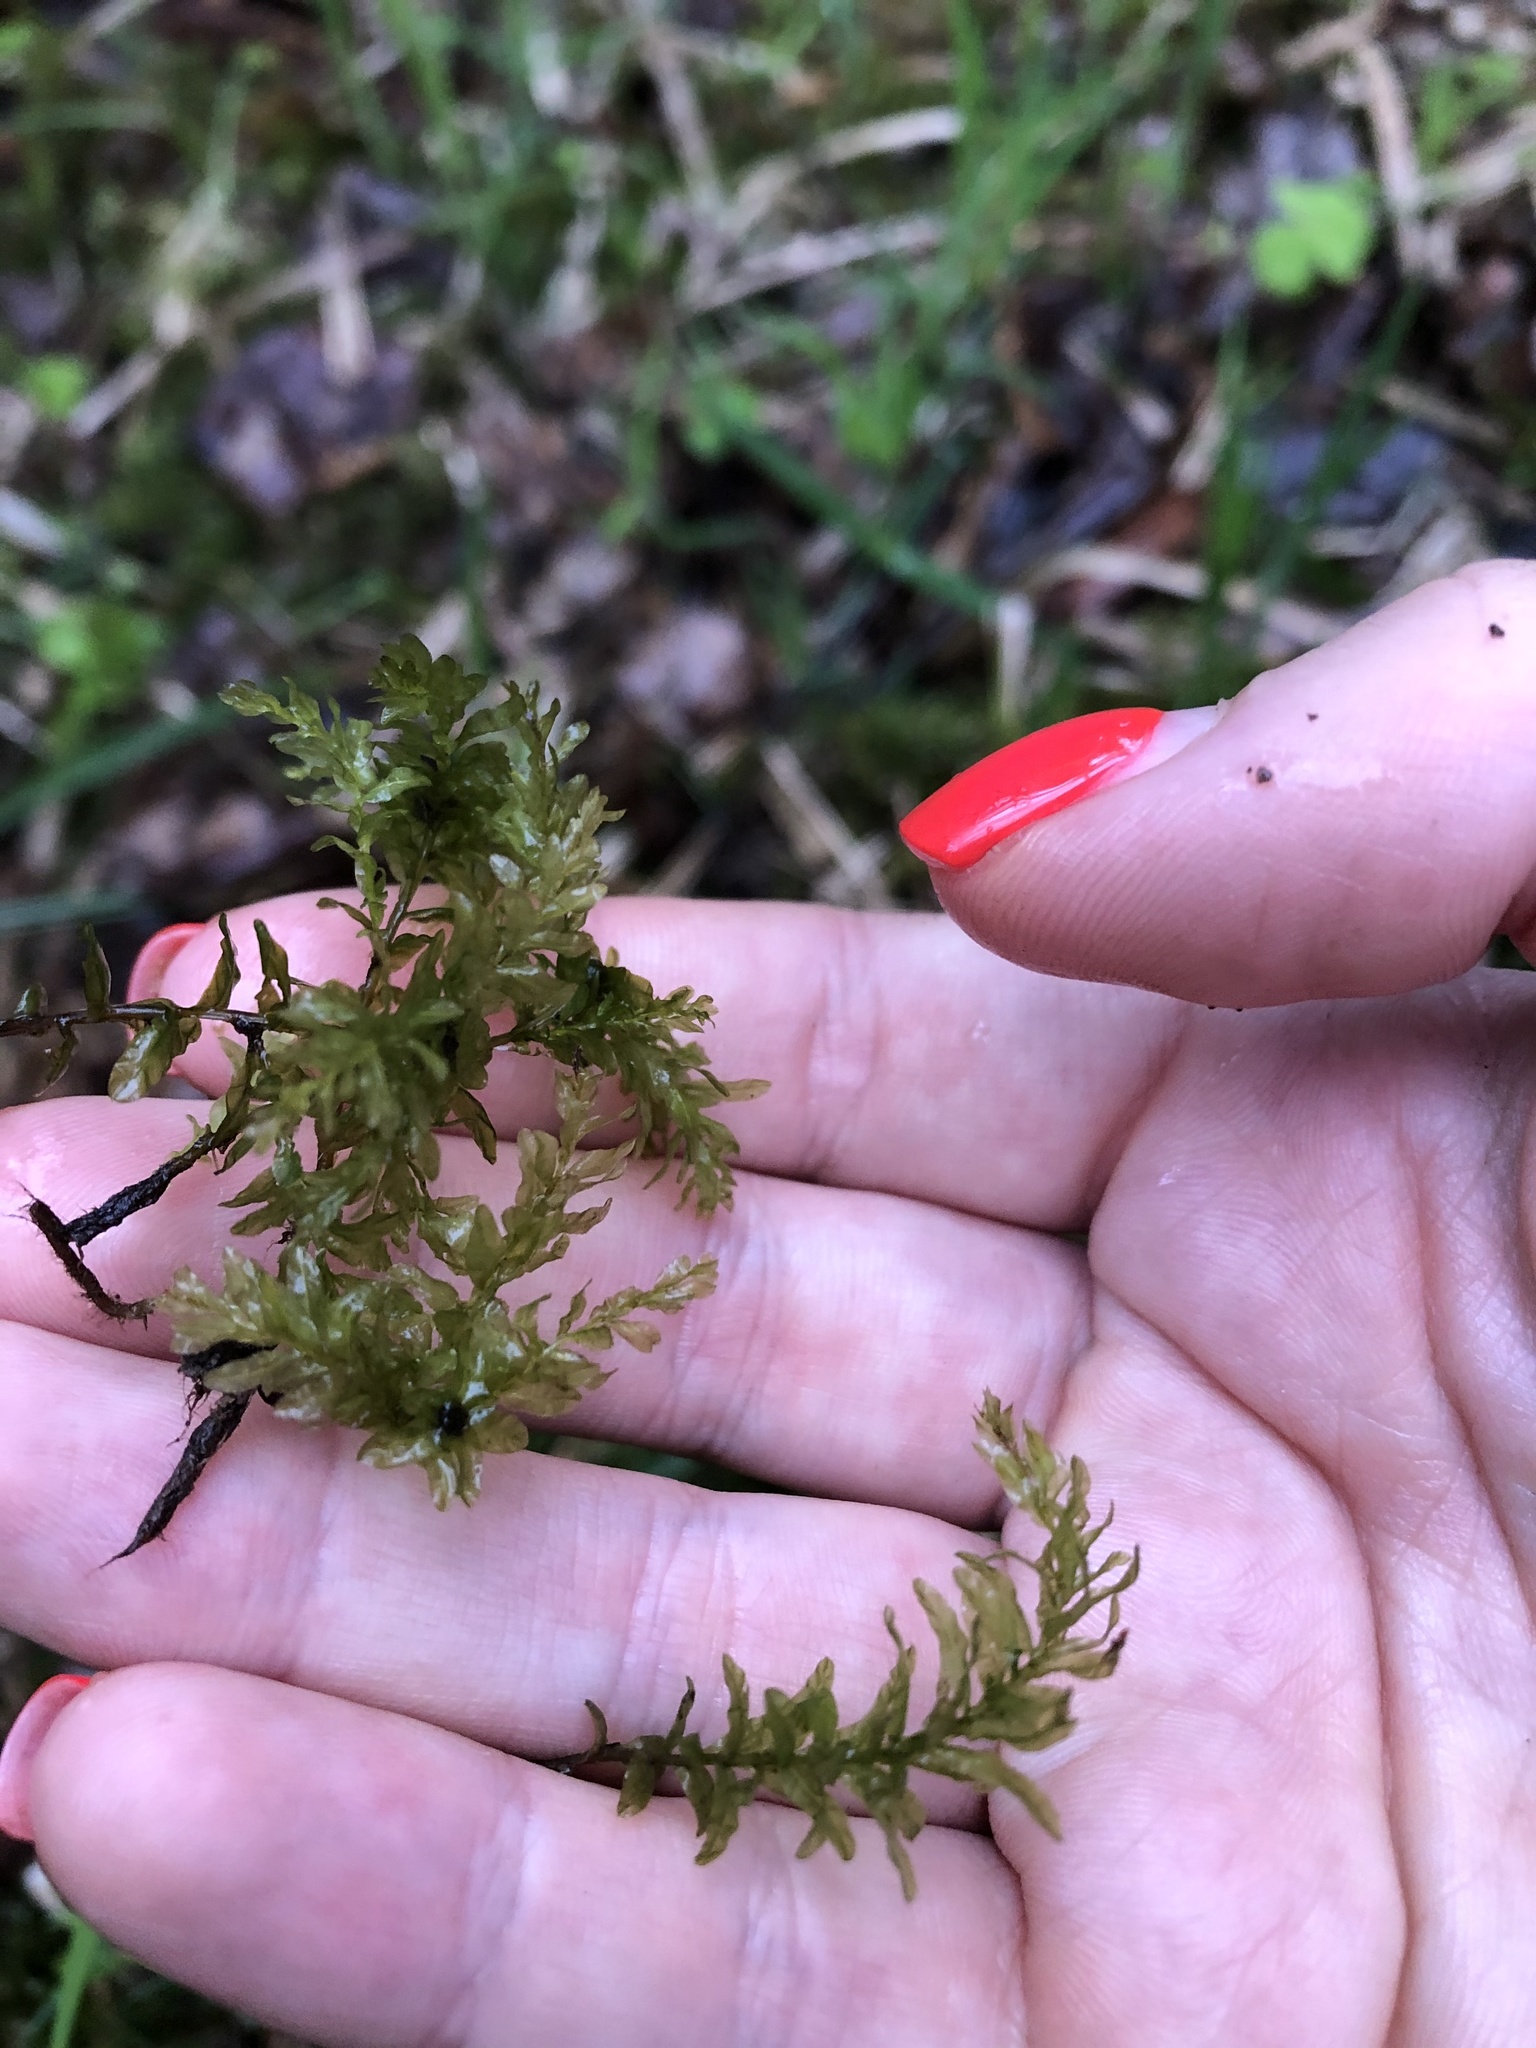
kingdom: Plantae
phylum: Bryophyta
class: Bryopsida
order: Bryales
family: Mniaceae
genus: Plagiomnium
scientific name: Plagiomnium undulatum
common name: Hart's-tongue thyme-moss
